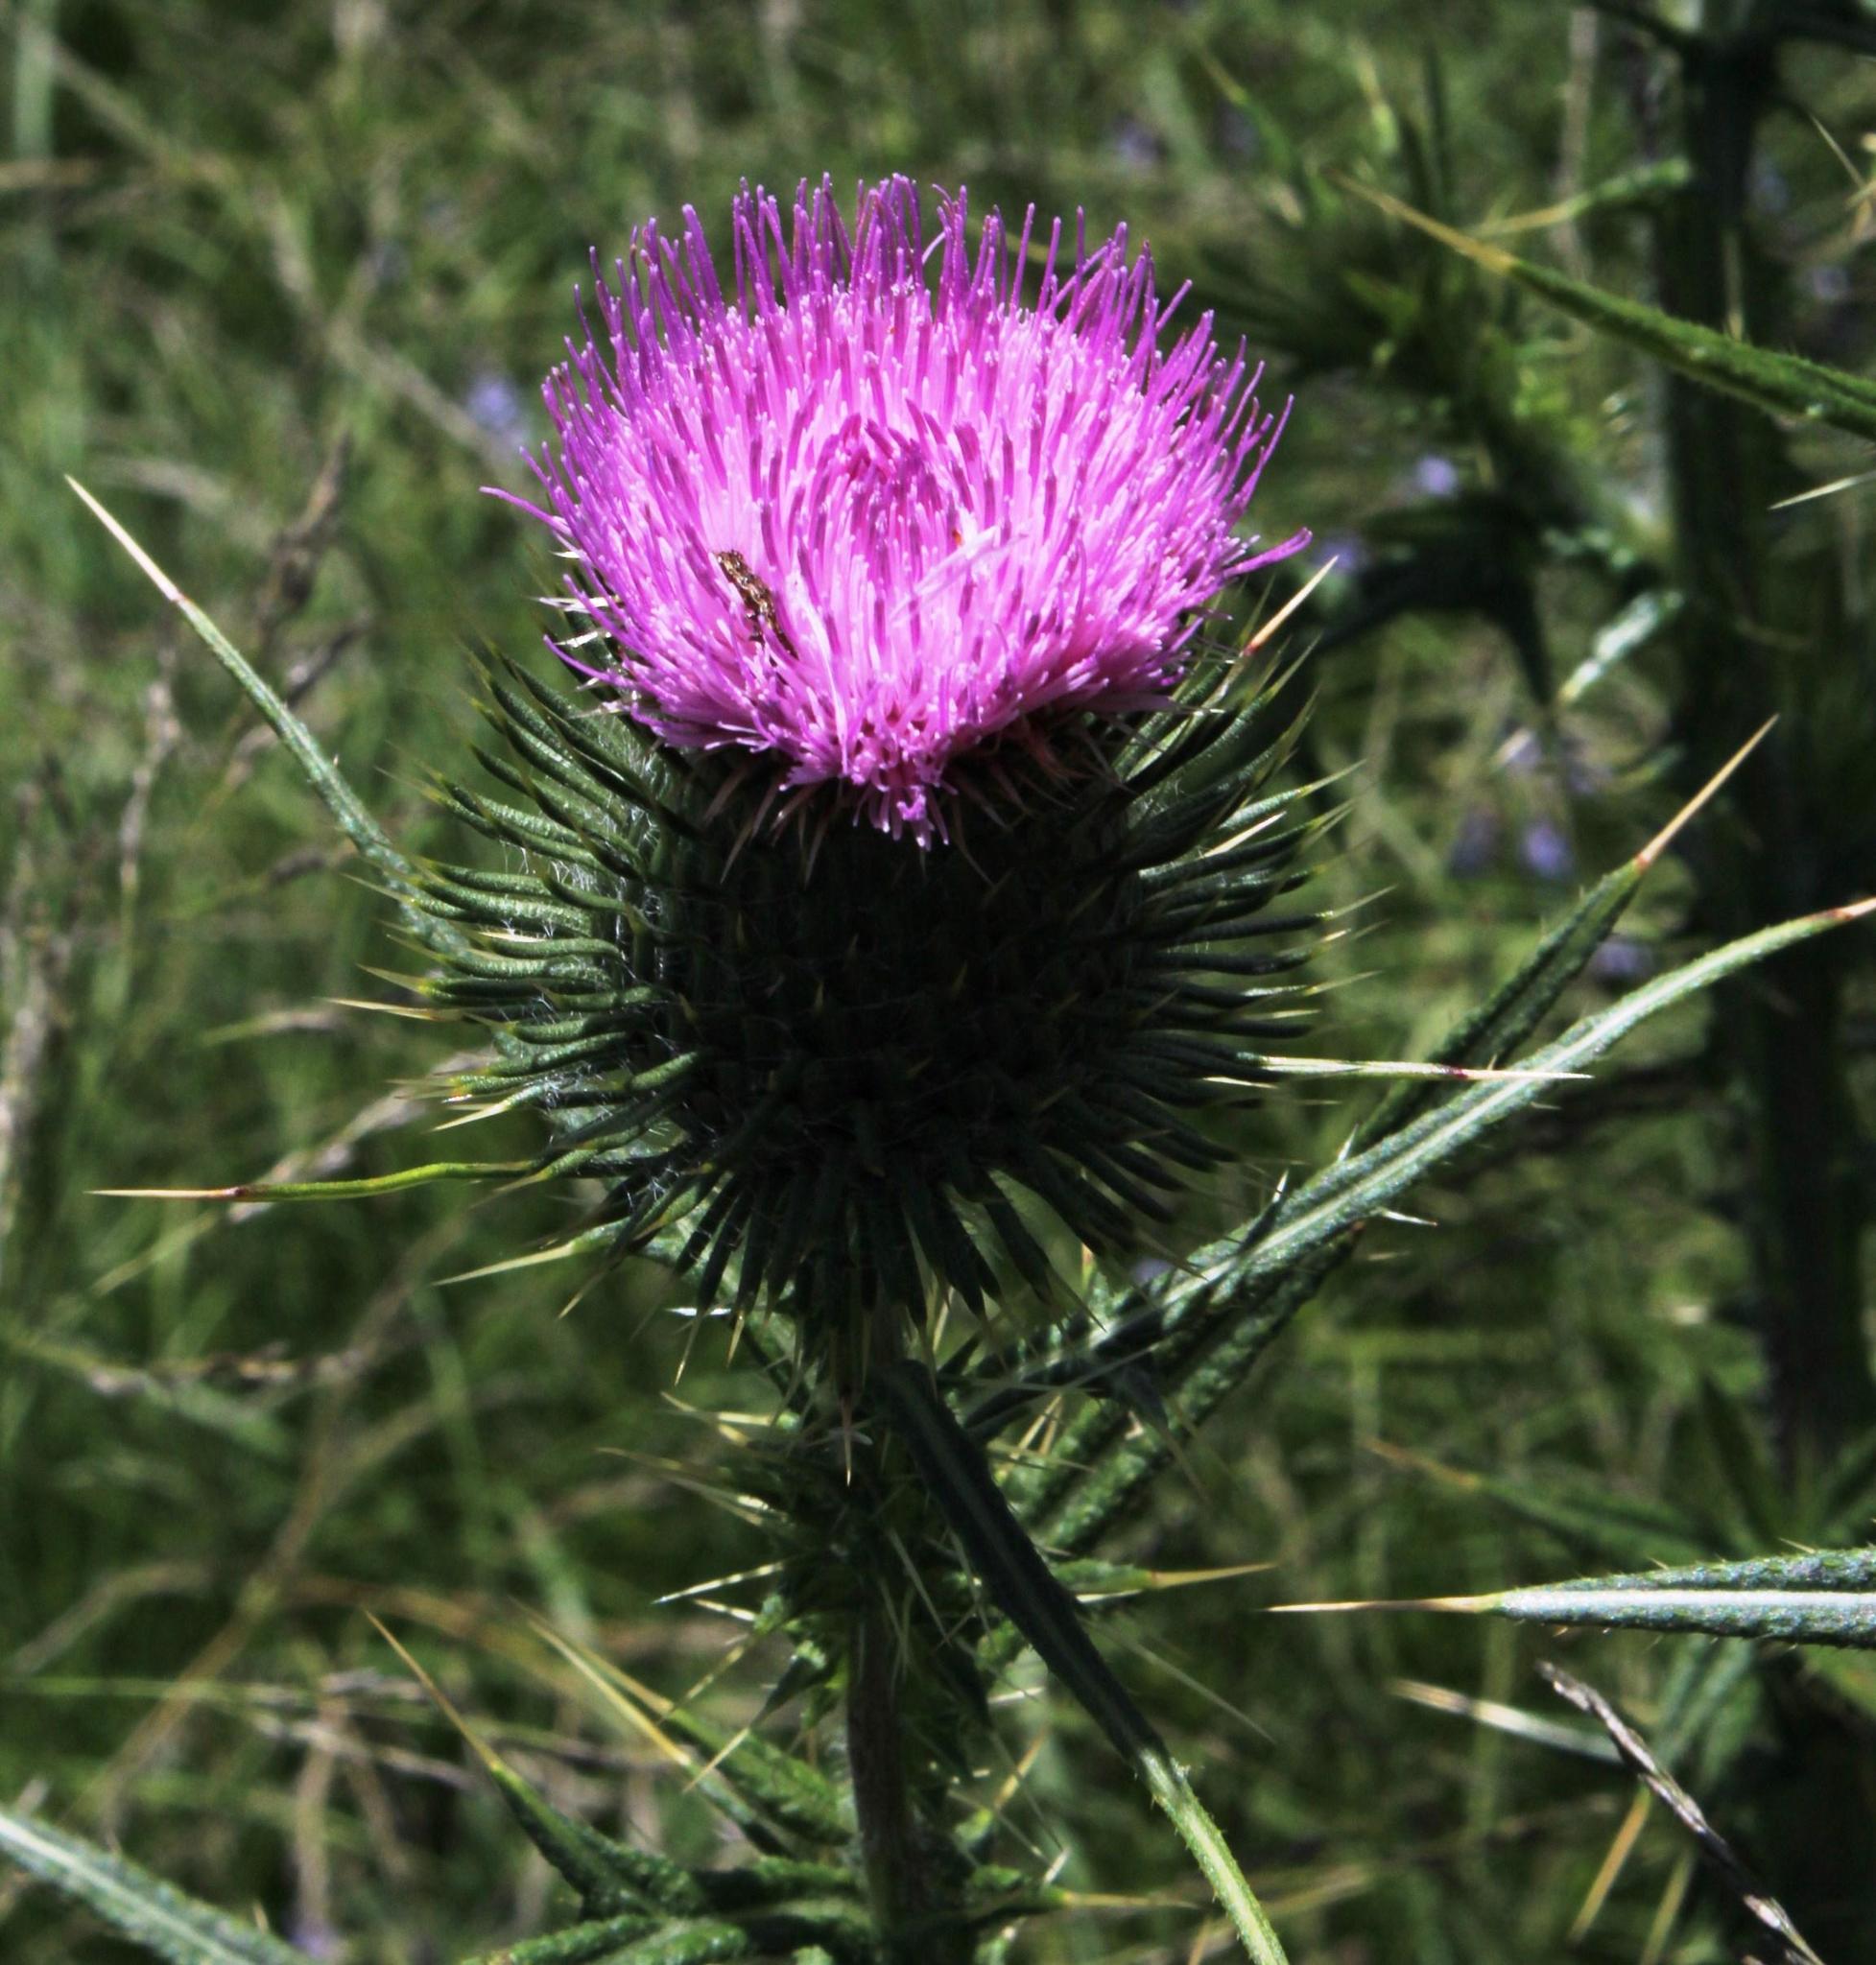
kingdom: Plantae
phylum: Tracheophyta
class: Magnoliopsida
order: Asterales
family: Asteraceae
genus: Cirsium
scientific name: Cirsium vulgare
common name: Bull thistle
